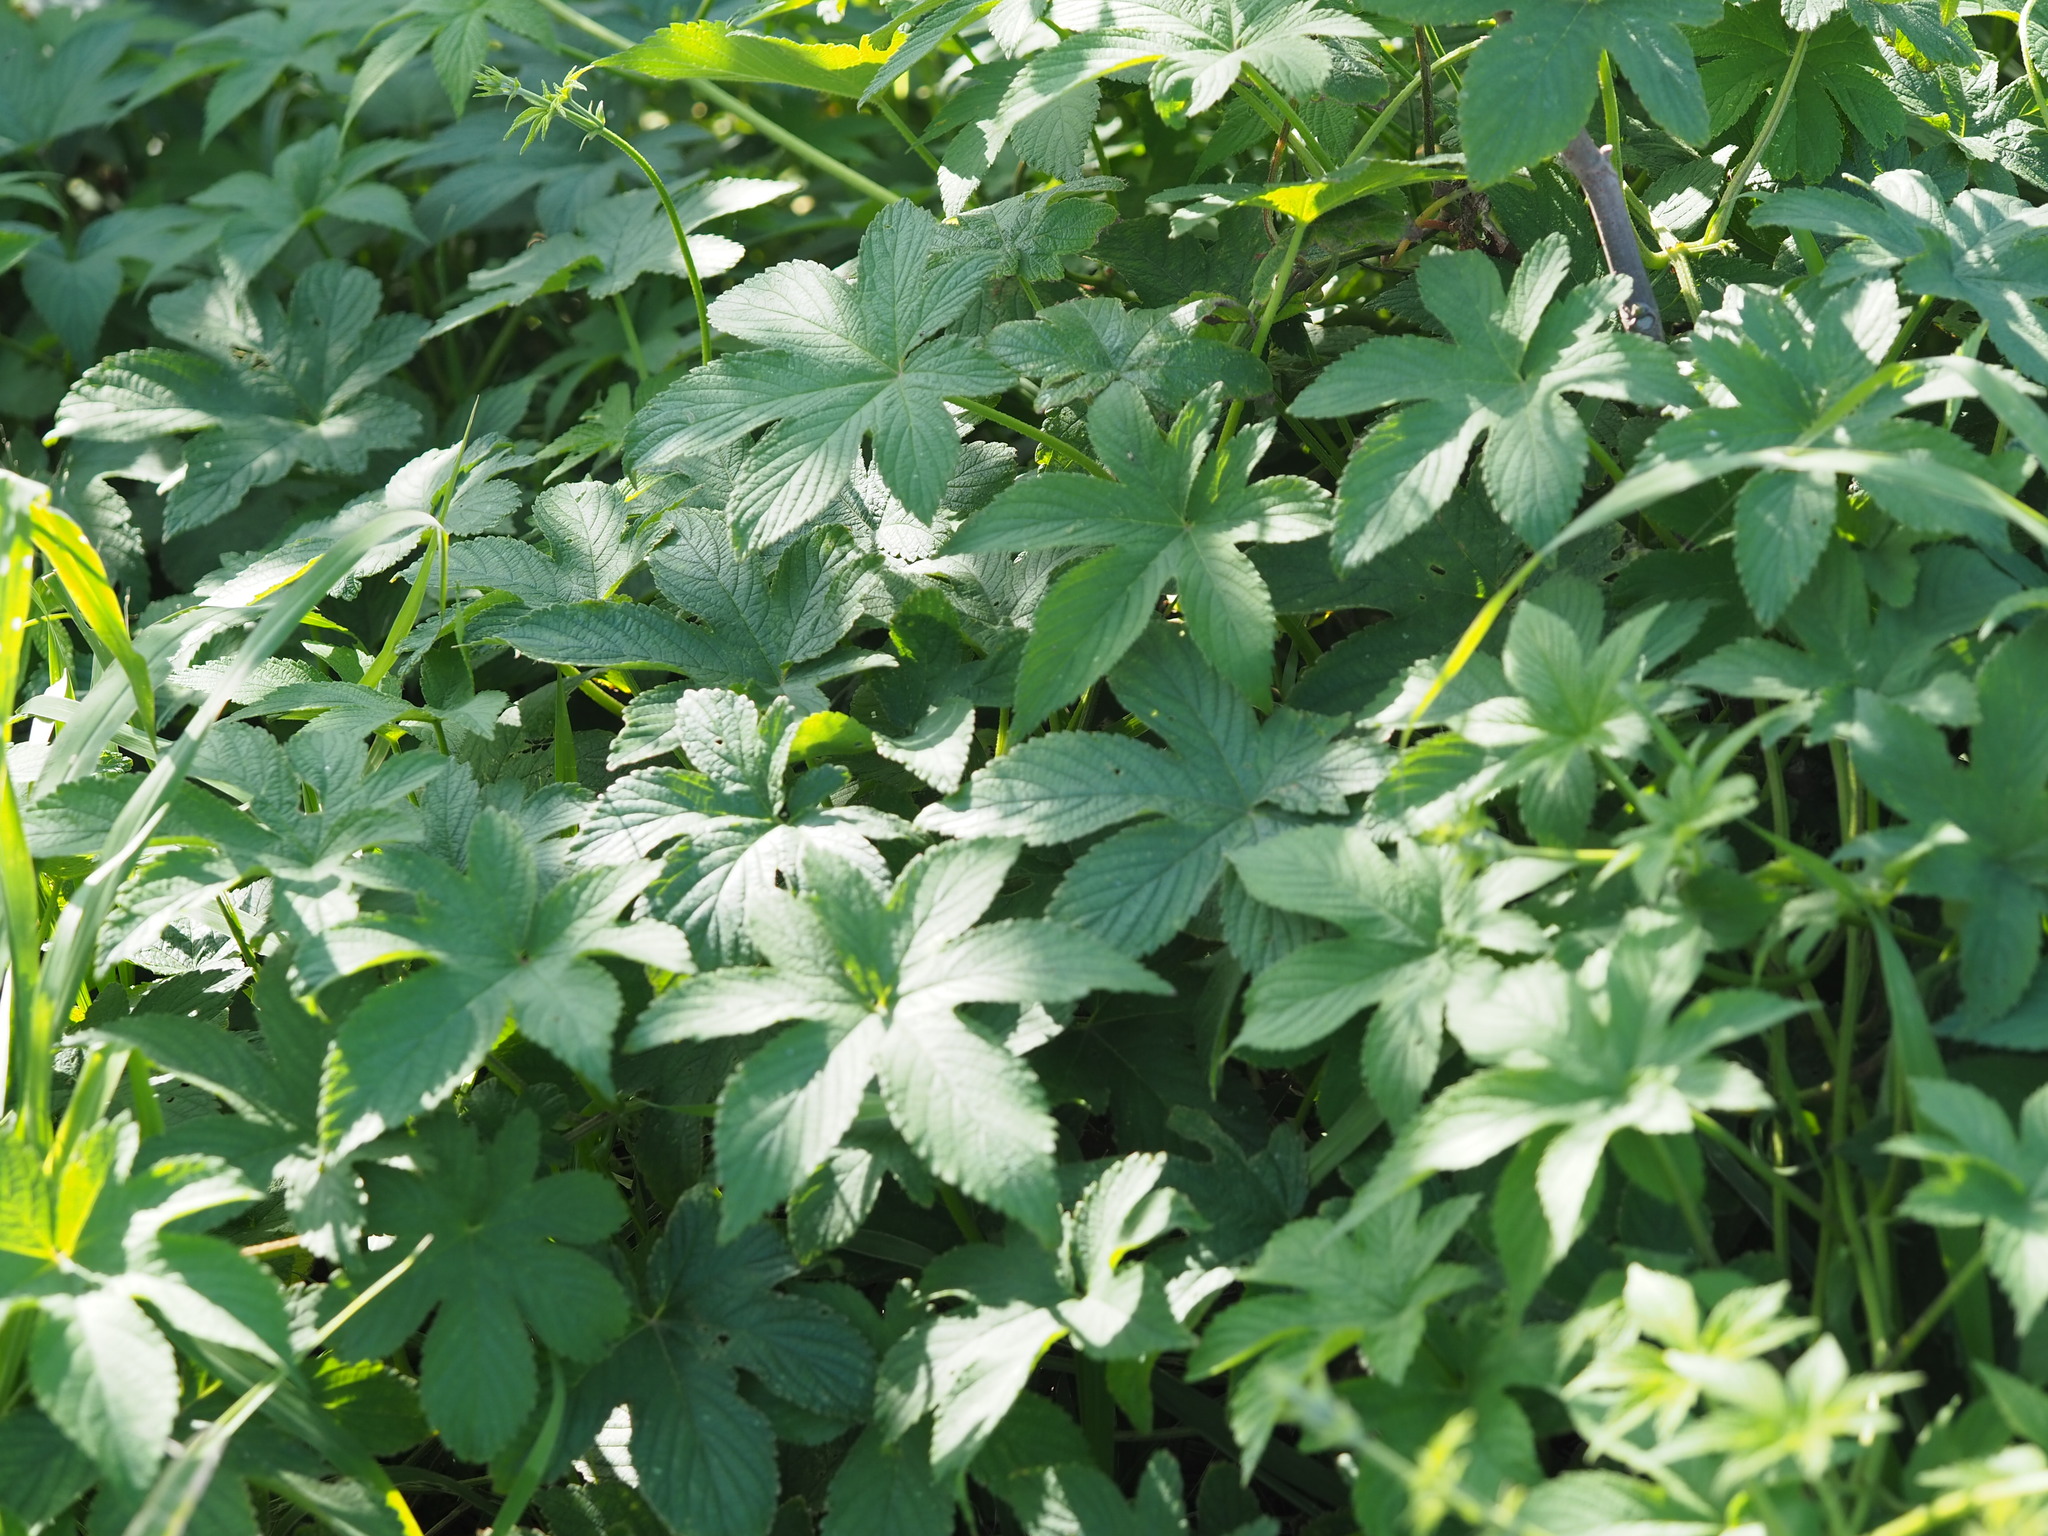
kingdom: Plantae
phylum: Tracheophyta
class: Magnoliopsida
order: Rosales
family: Cannabaceae
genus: Humulus
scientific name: Humulus scandens
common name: Japanese hop
